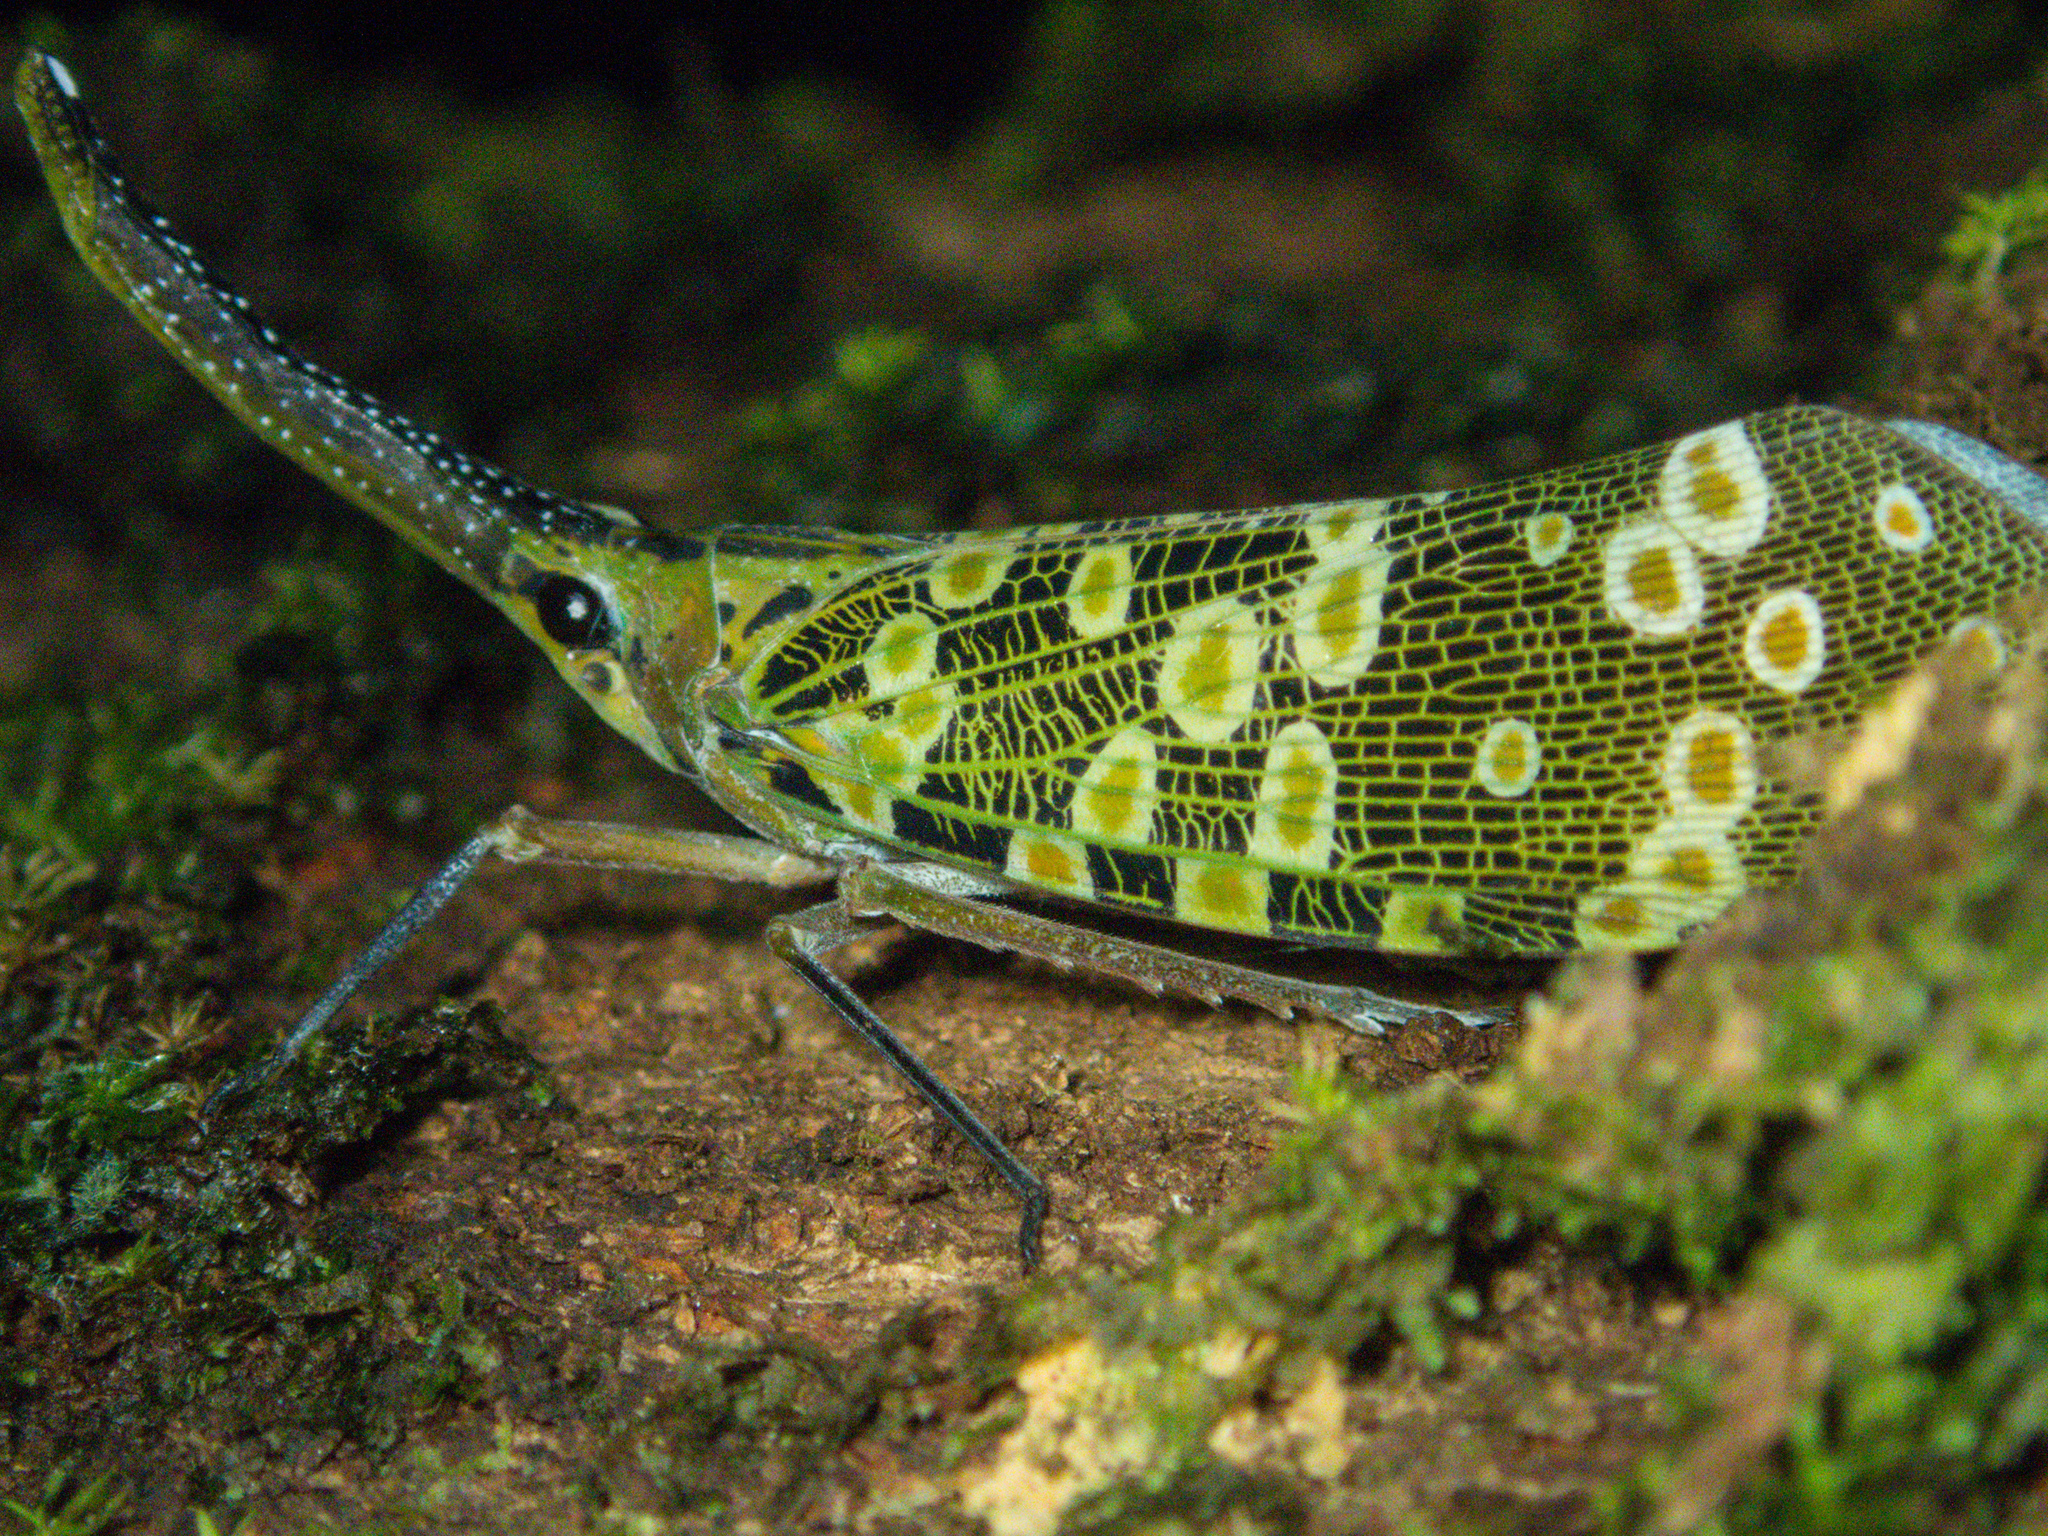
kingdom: Animalia
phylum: Arthropoda
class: Insecta
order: Hemiptera
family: Fulgoridae
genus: Pyrops
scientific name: Pyrops condorinus
